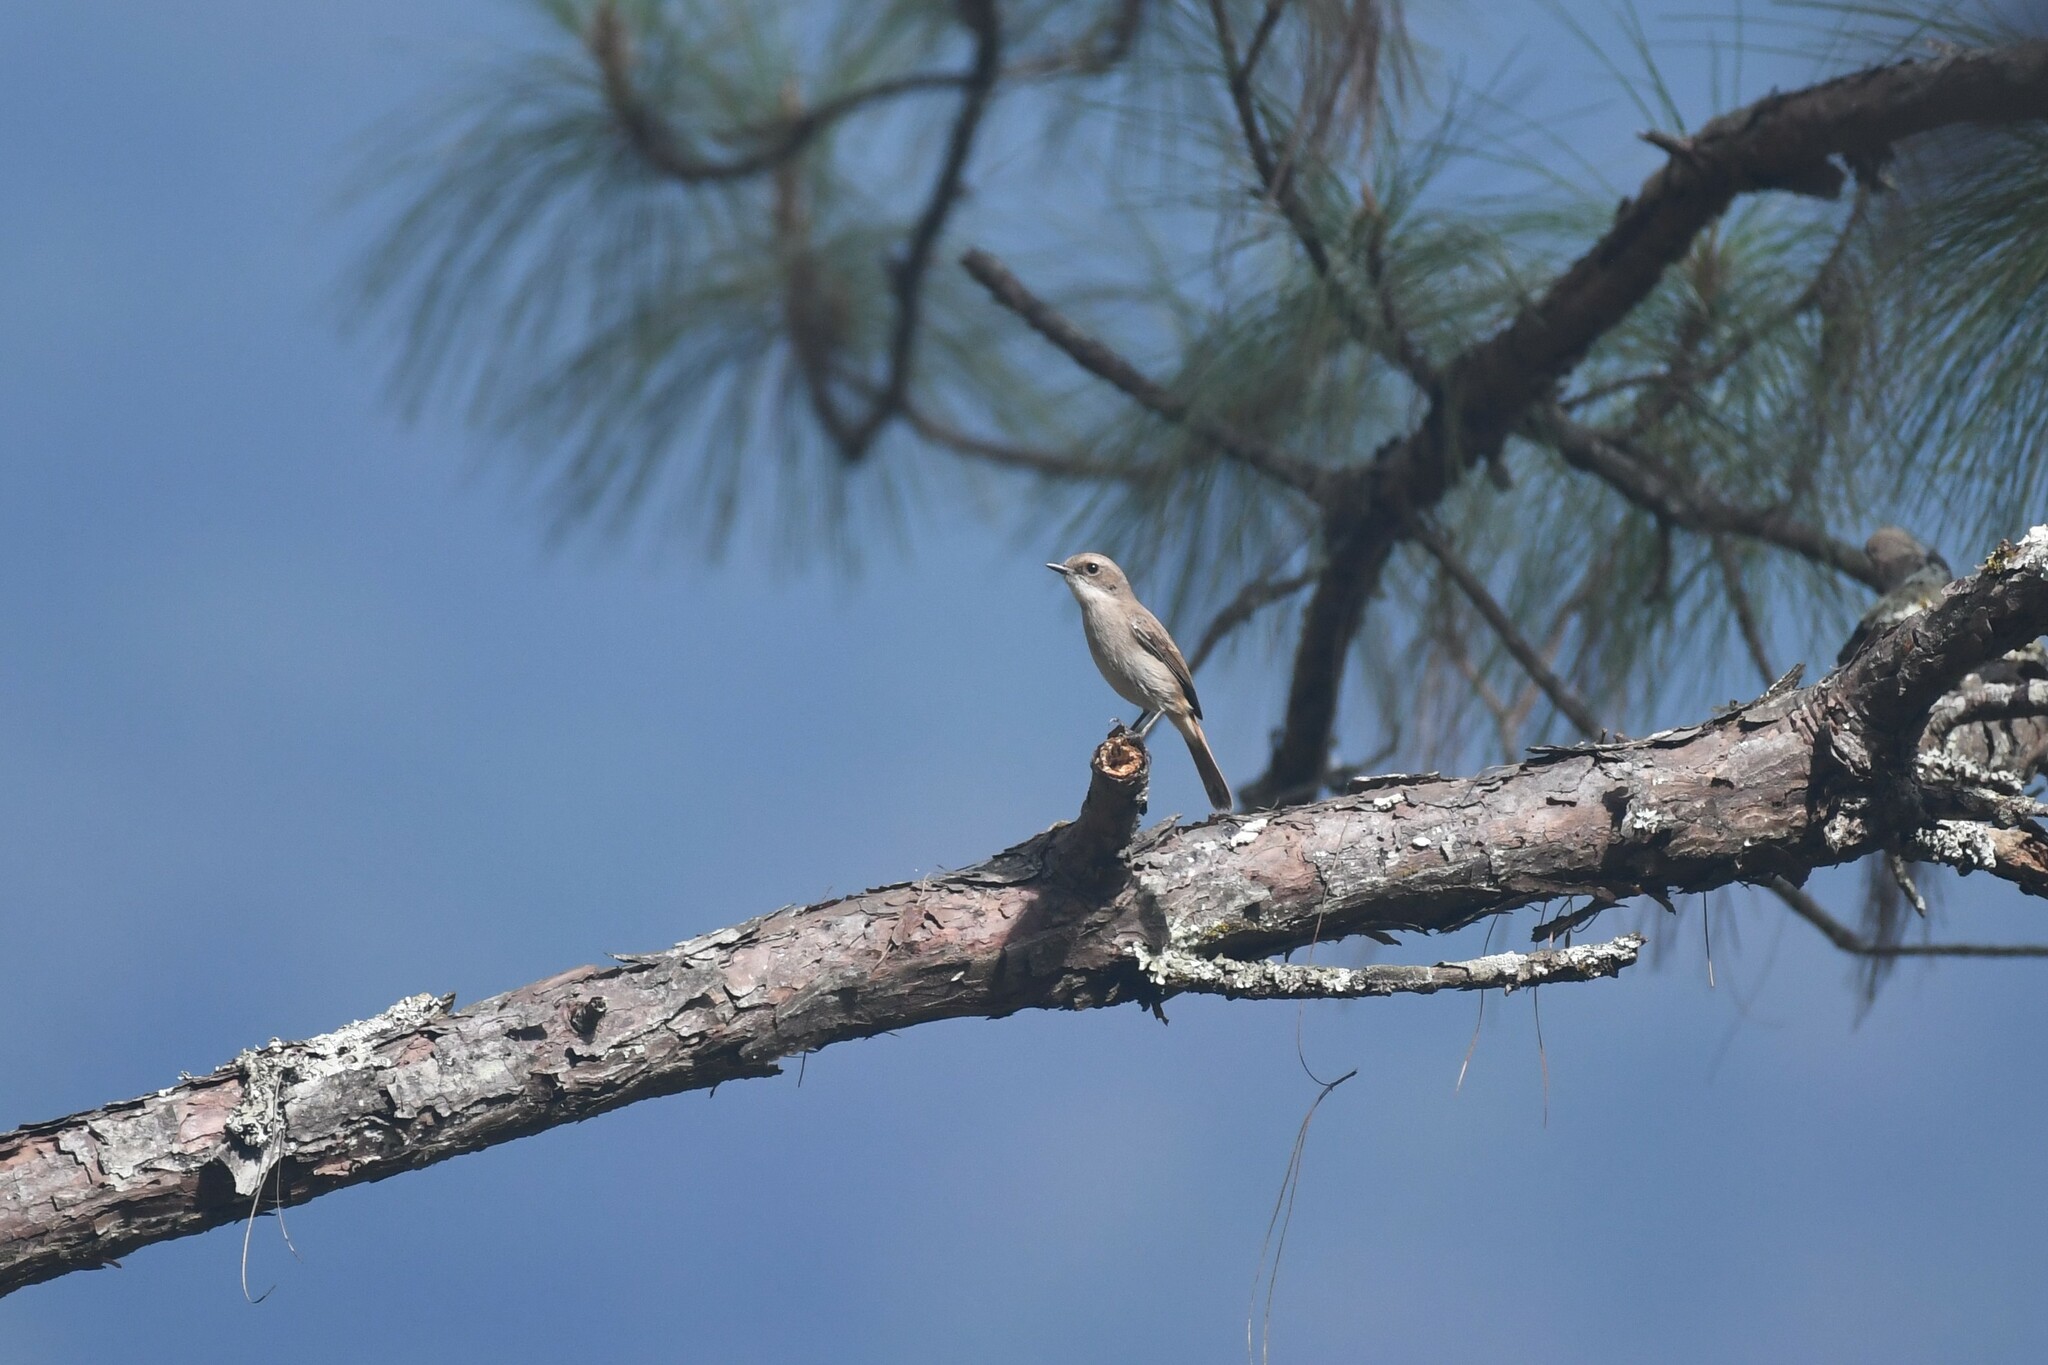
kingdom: Animalia
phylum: Chordata
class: Aves
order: Passeriformes
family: Muscicapidae
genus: Saxicola
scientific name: Saxicola ferreus
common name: Grey bush chat
